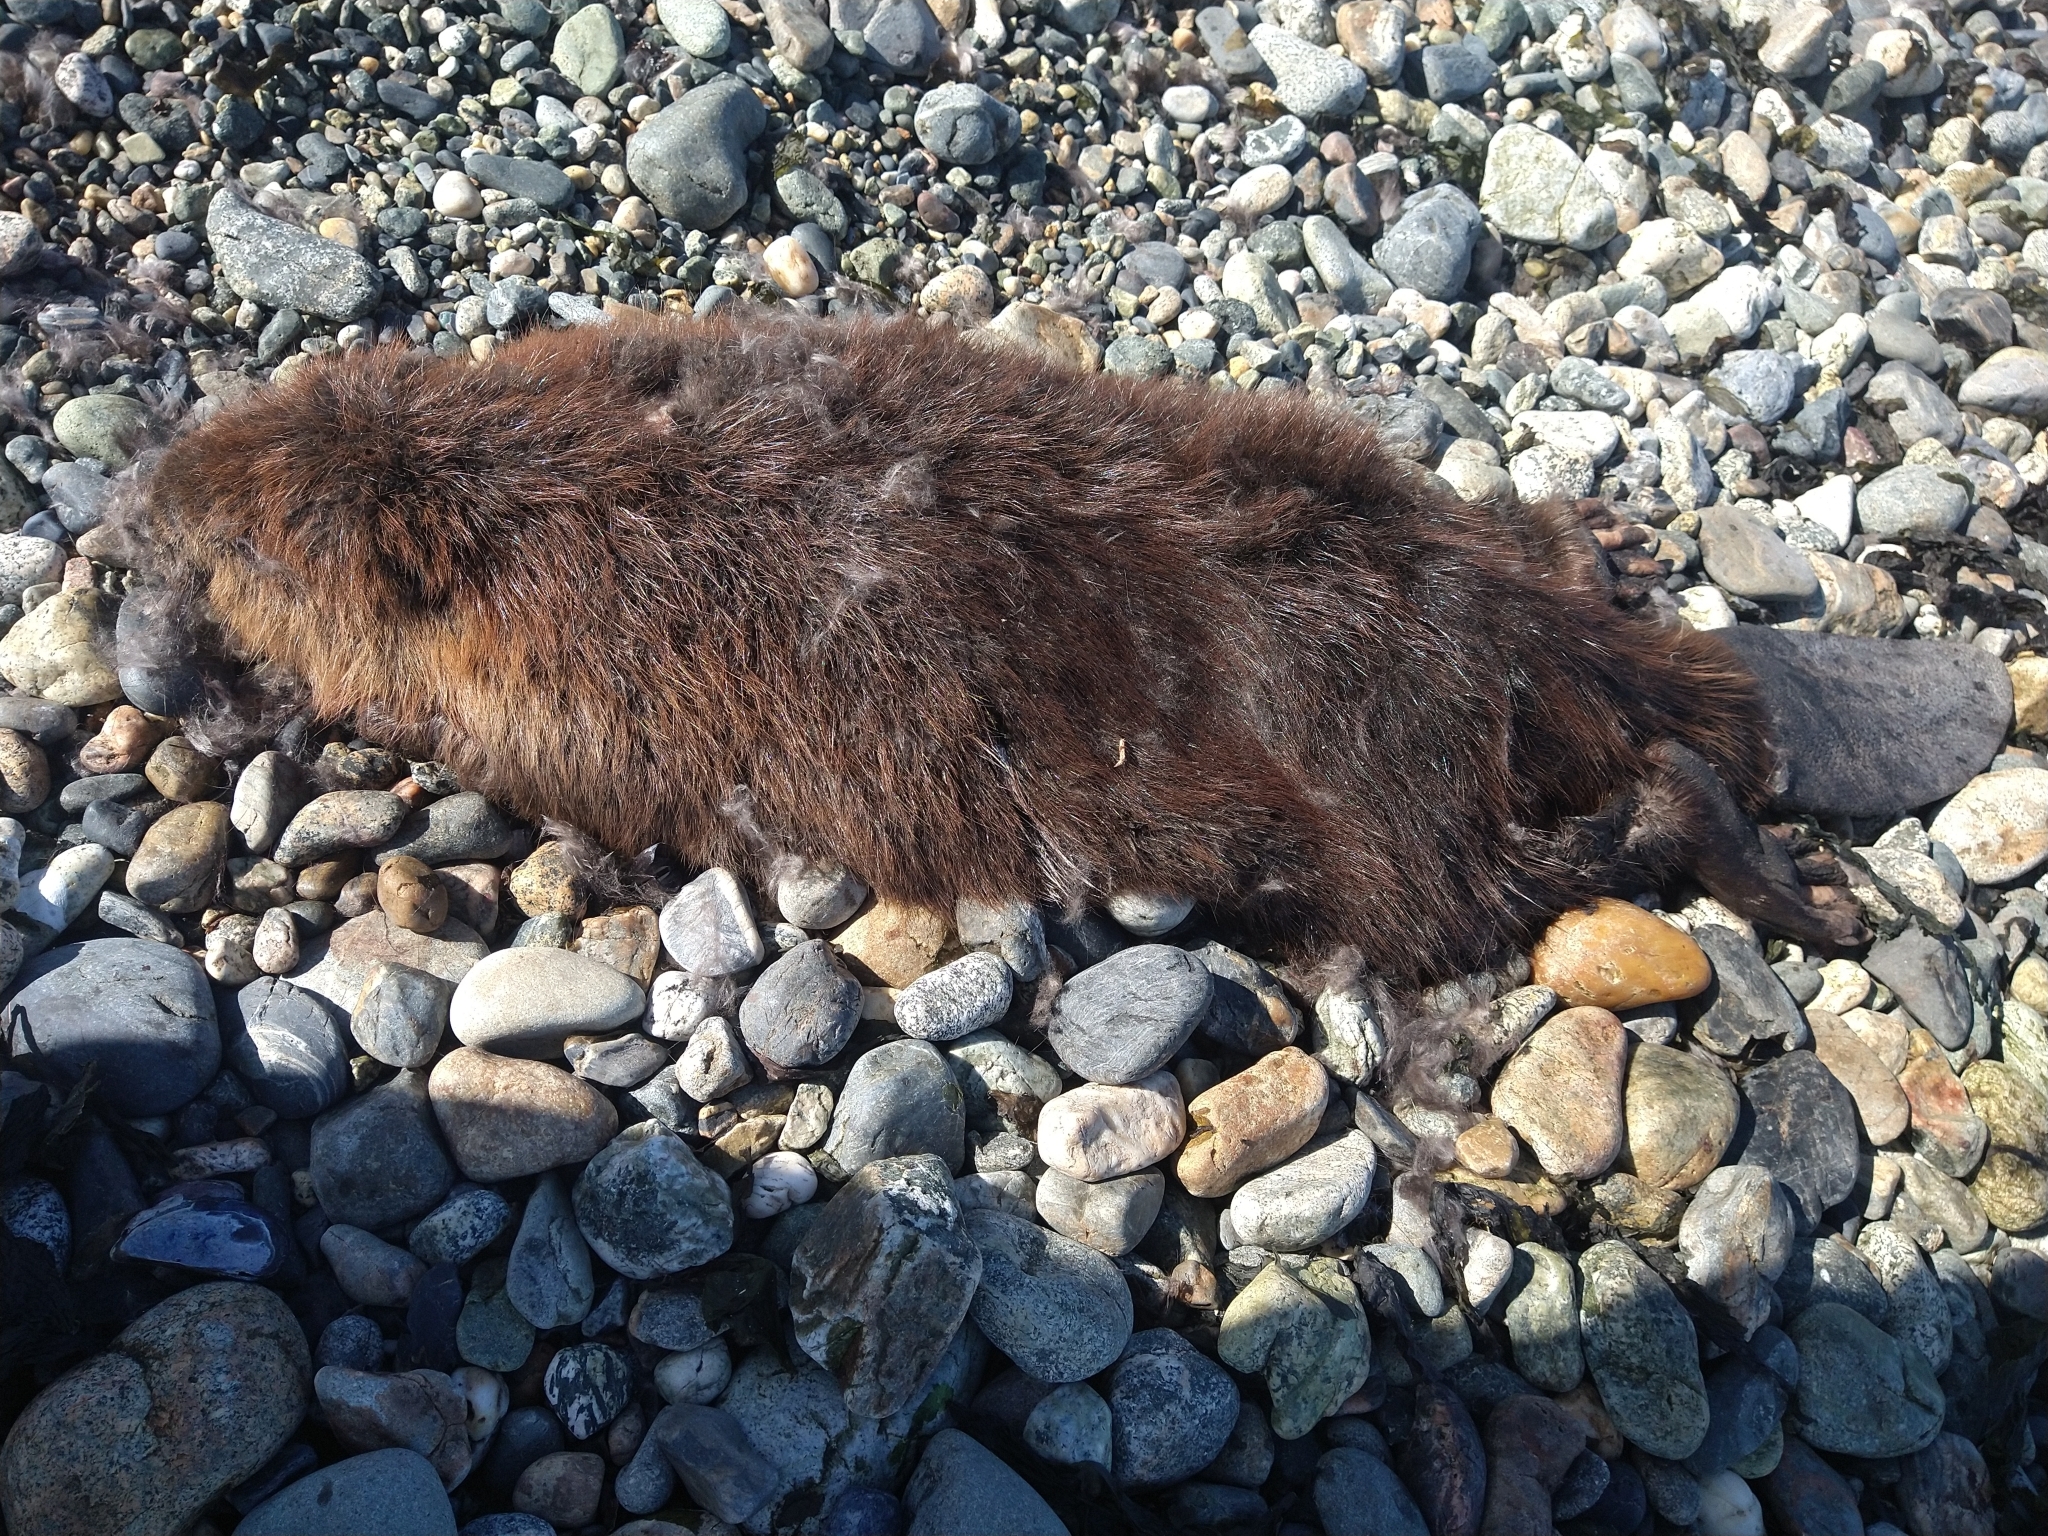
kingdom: Animalia
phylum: Chordata
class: Mammalia
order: Rodentia
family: Castoridae
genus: Castor
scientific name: Castor canadensis
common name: American beaver
